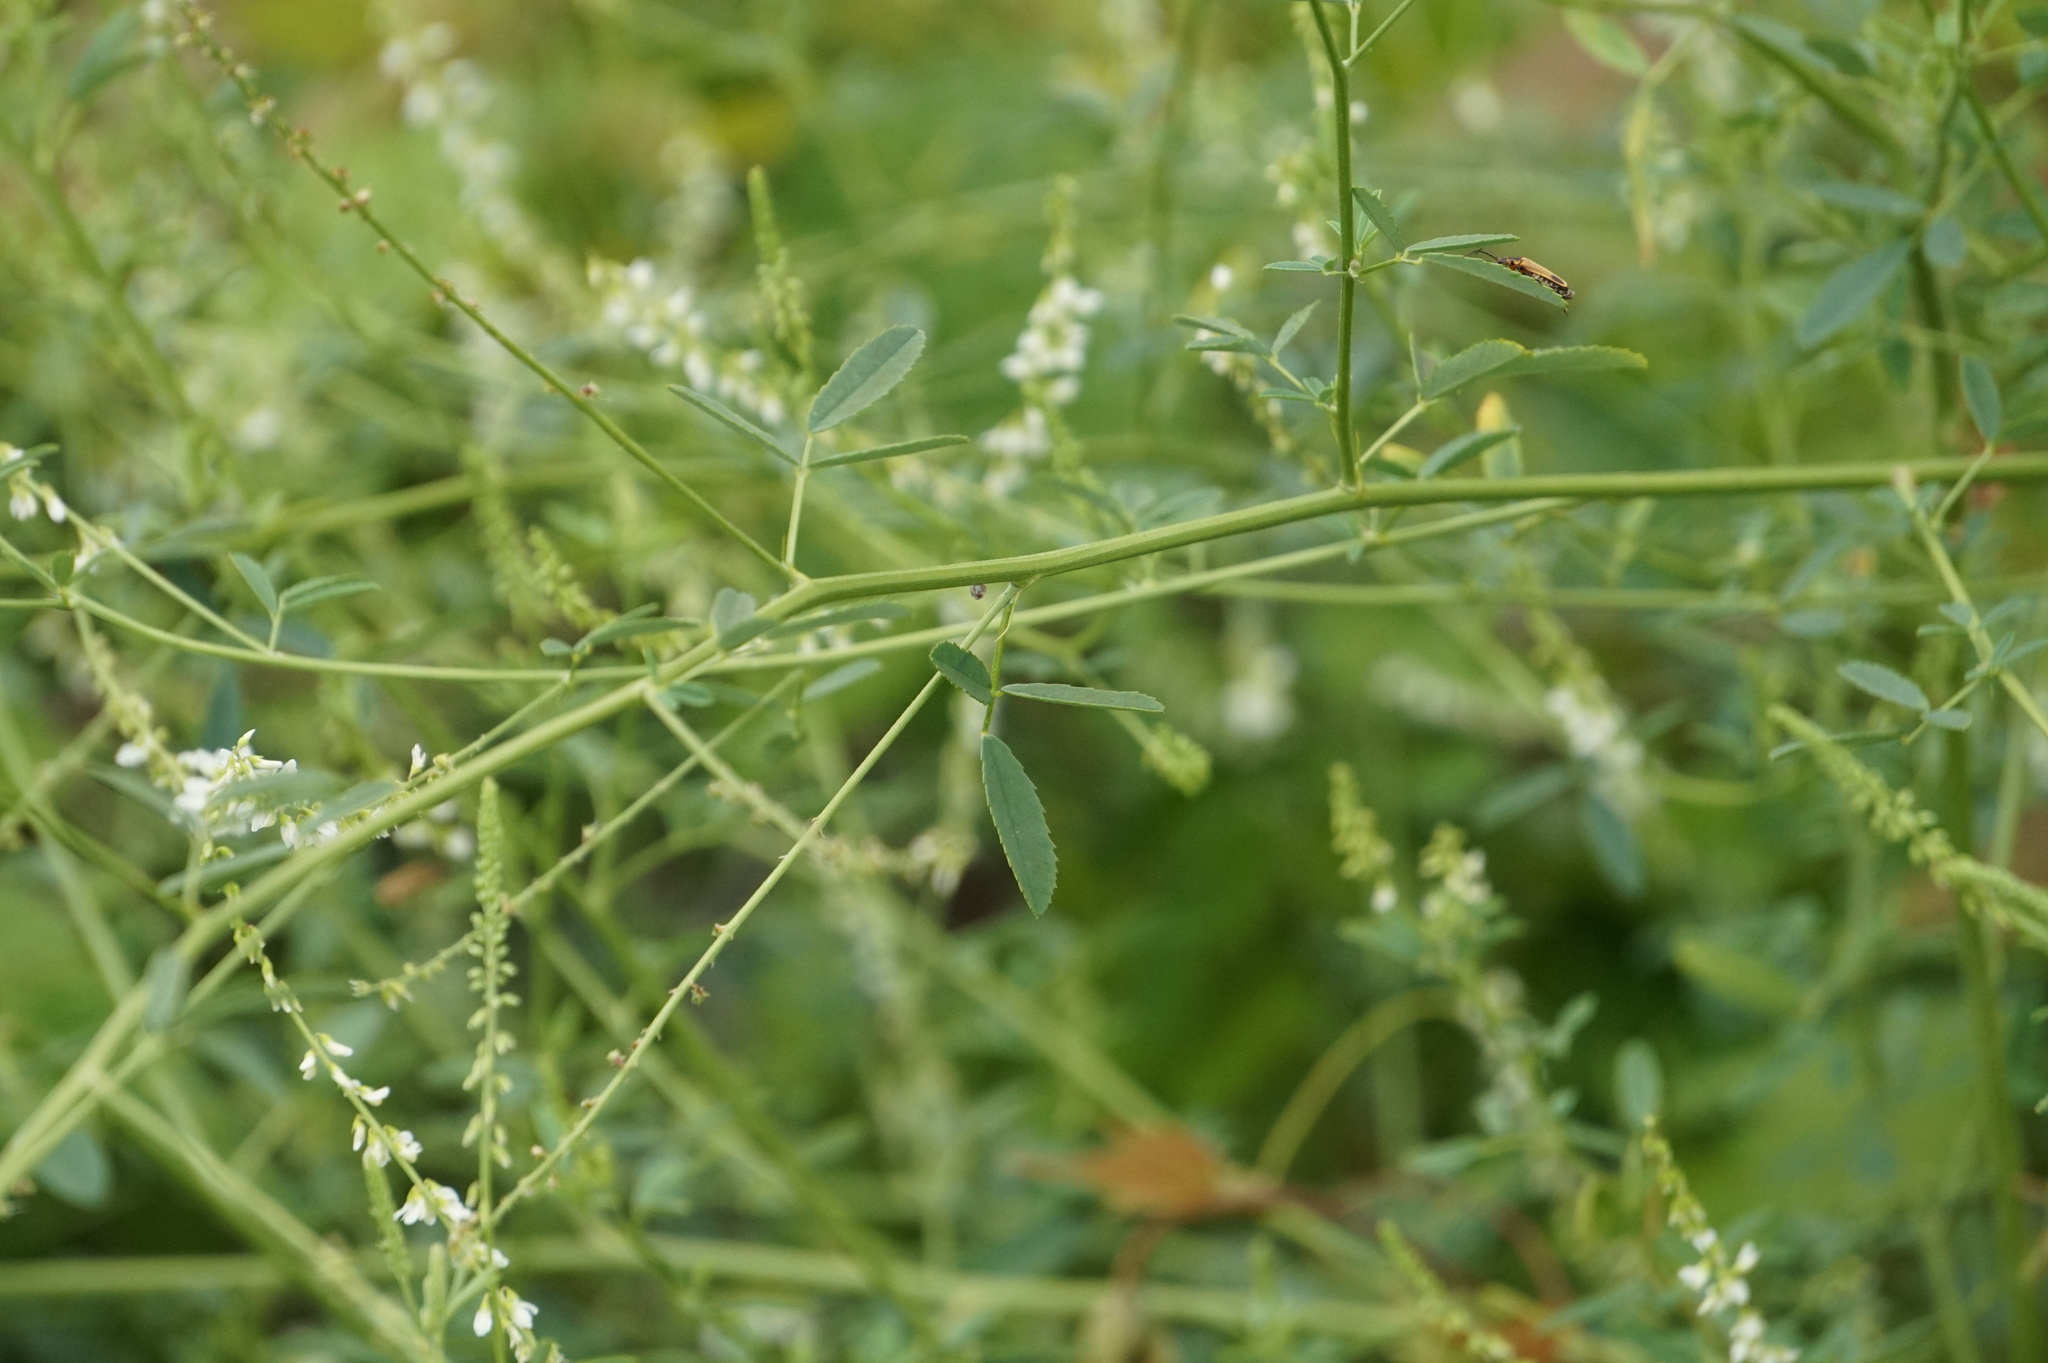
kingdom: Plantae
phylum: Tracheophyta
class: Magnoliopsida
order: Fabales
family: Fabaceae
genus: Melilotus
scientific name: Melilotus albus
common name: White melilot
